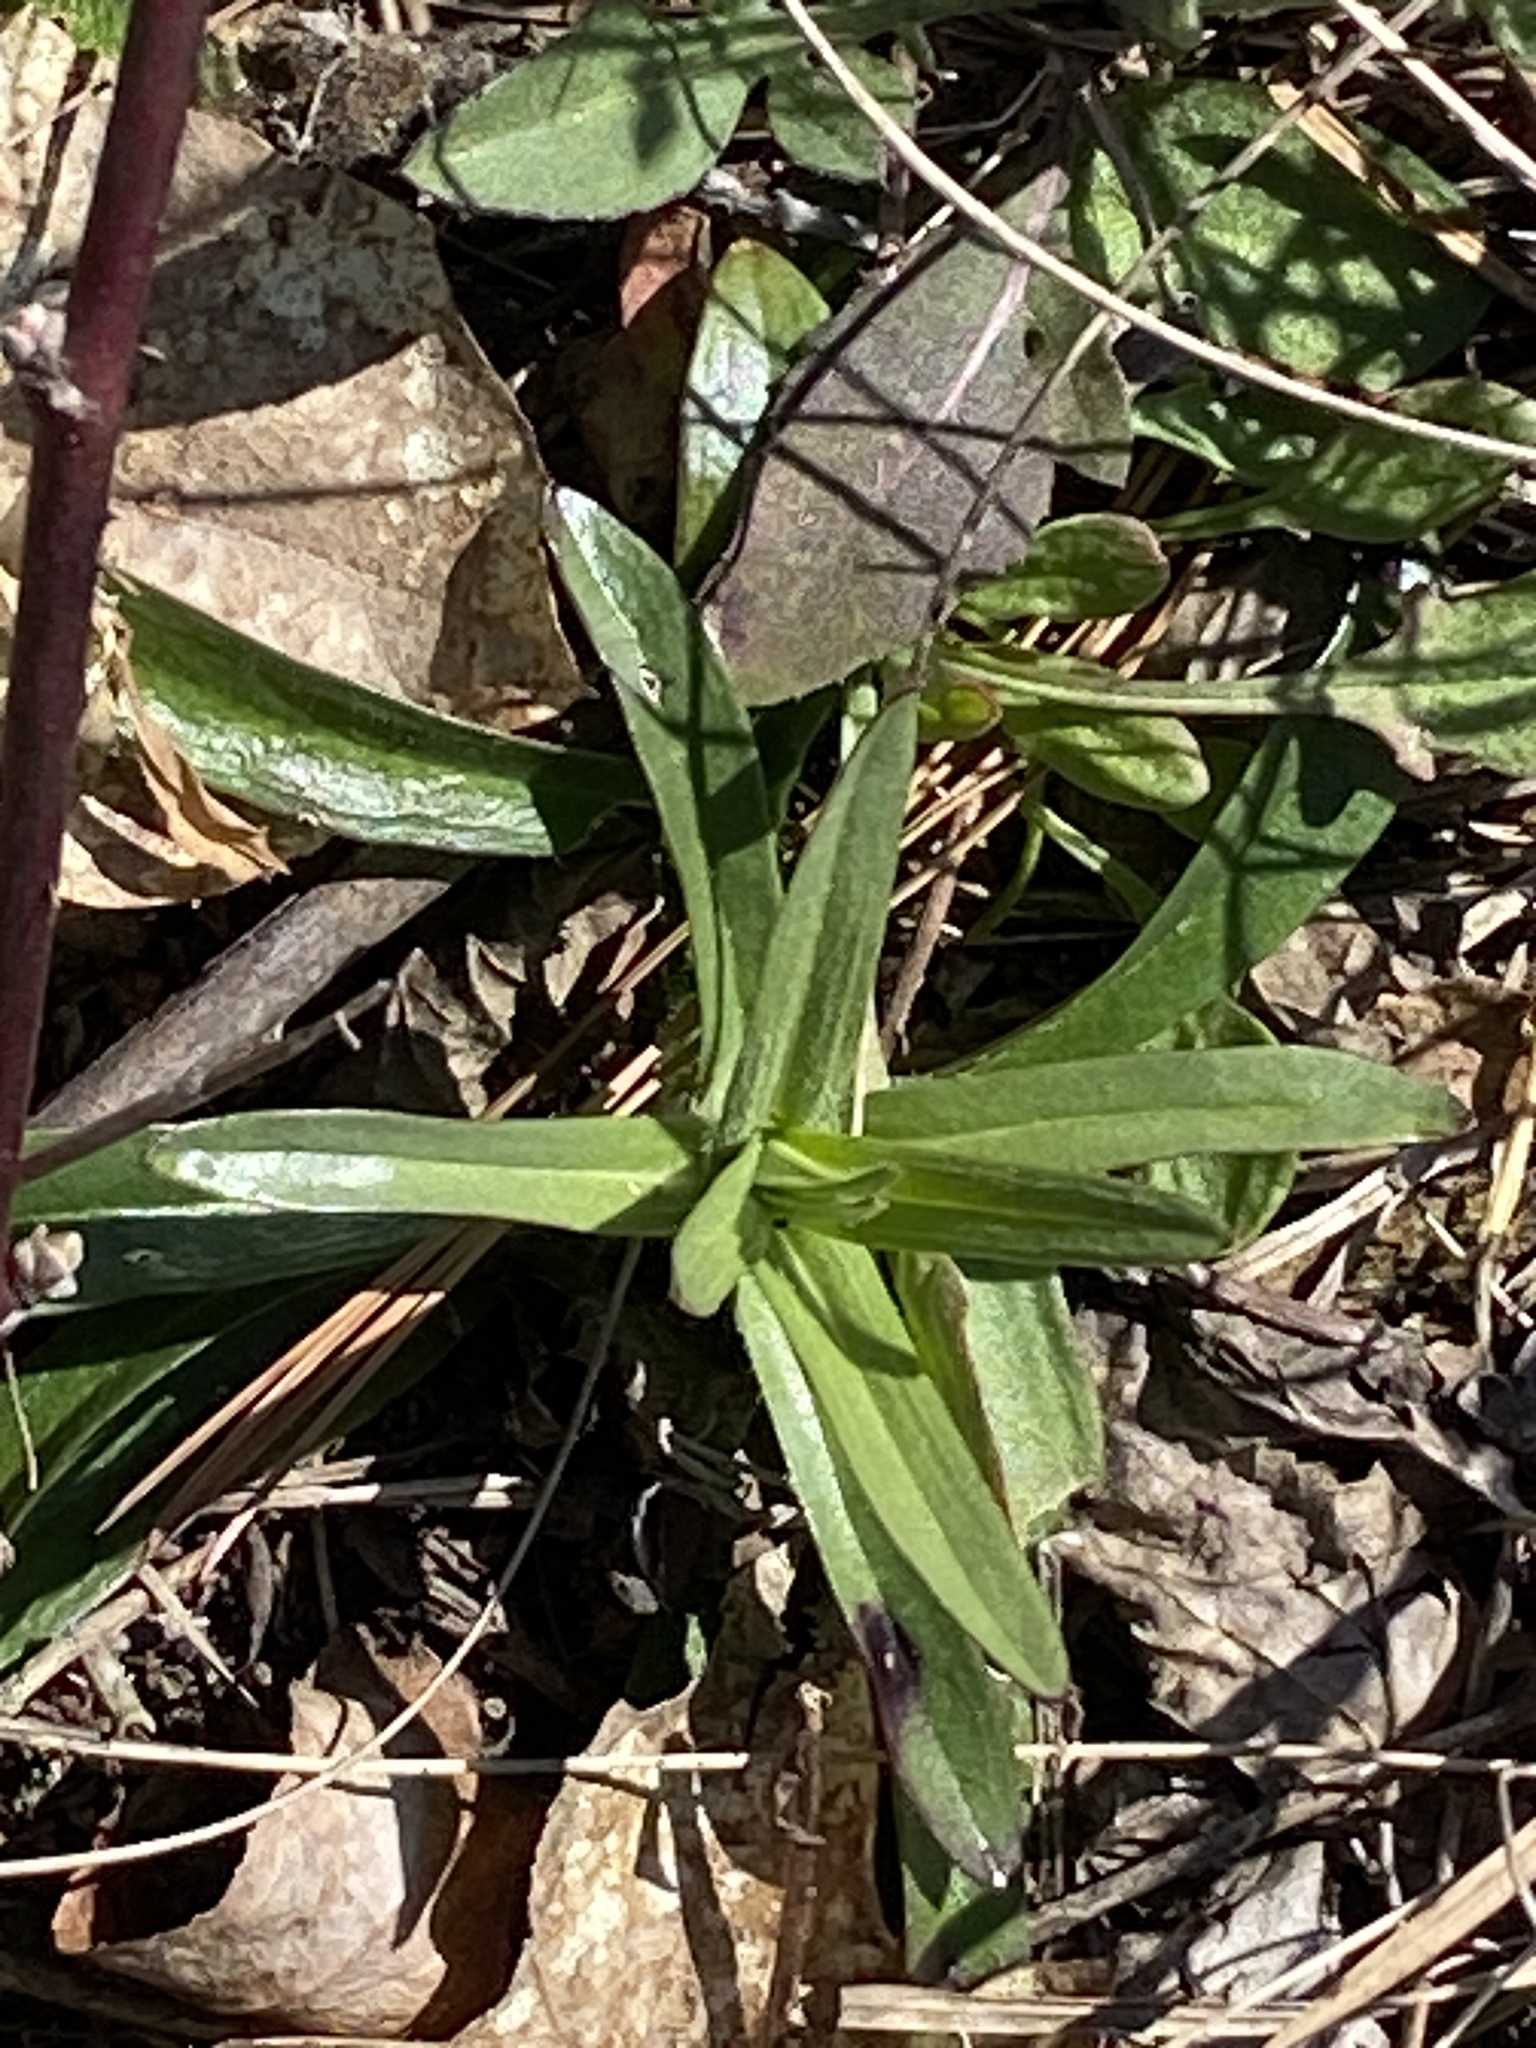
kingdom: Plantae
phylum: Tracheophyta
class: Magnoliopsida
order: Caryophyllales
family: Caryophyllaceae
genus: Dianthus
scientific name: Dianthus armeria
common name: Deptford pink
